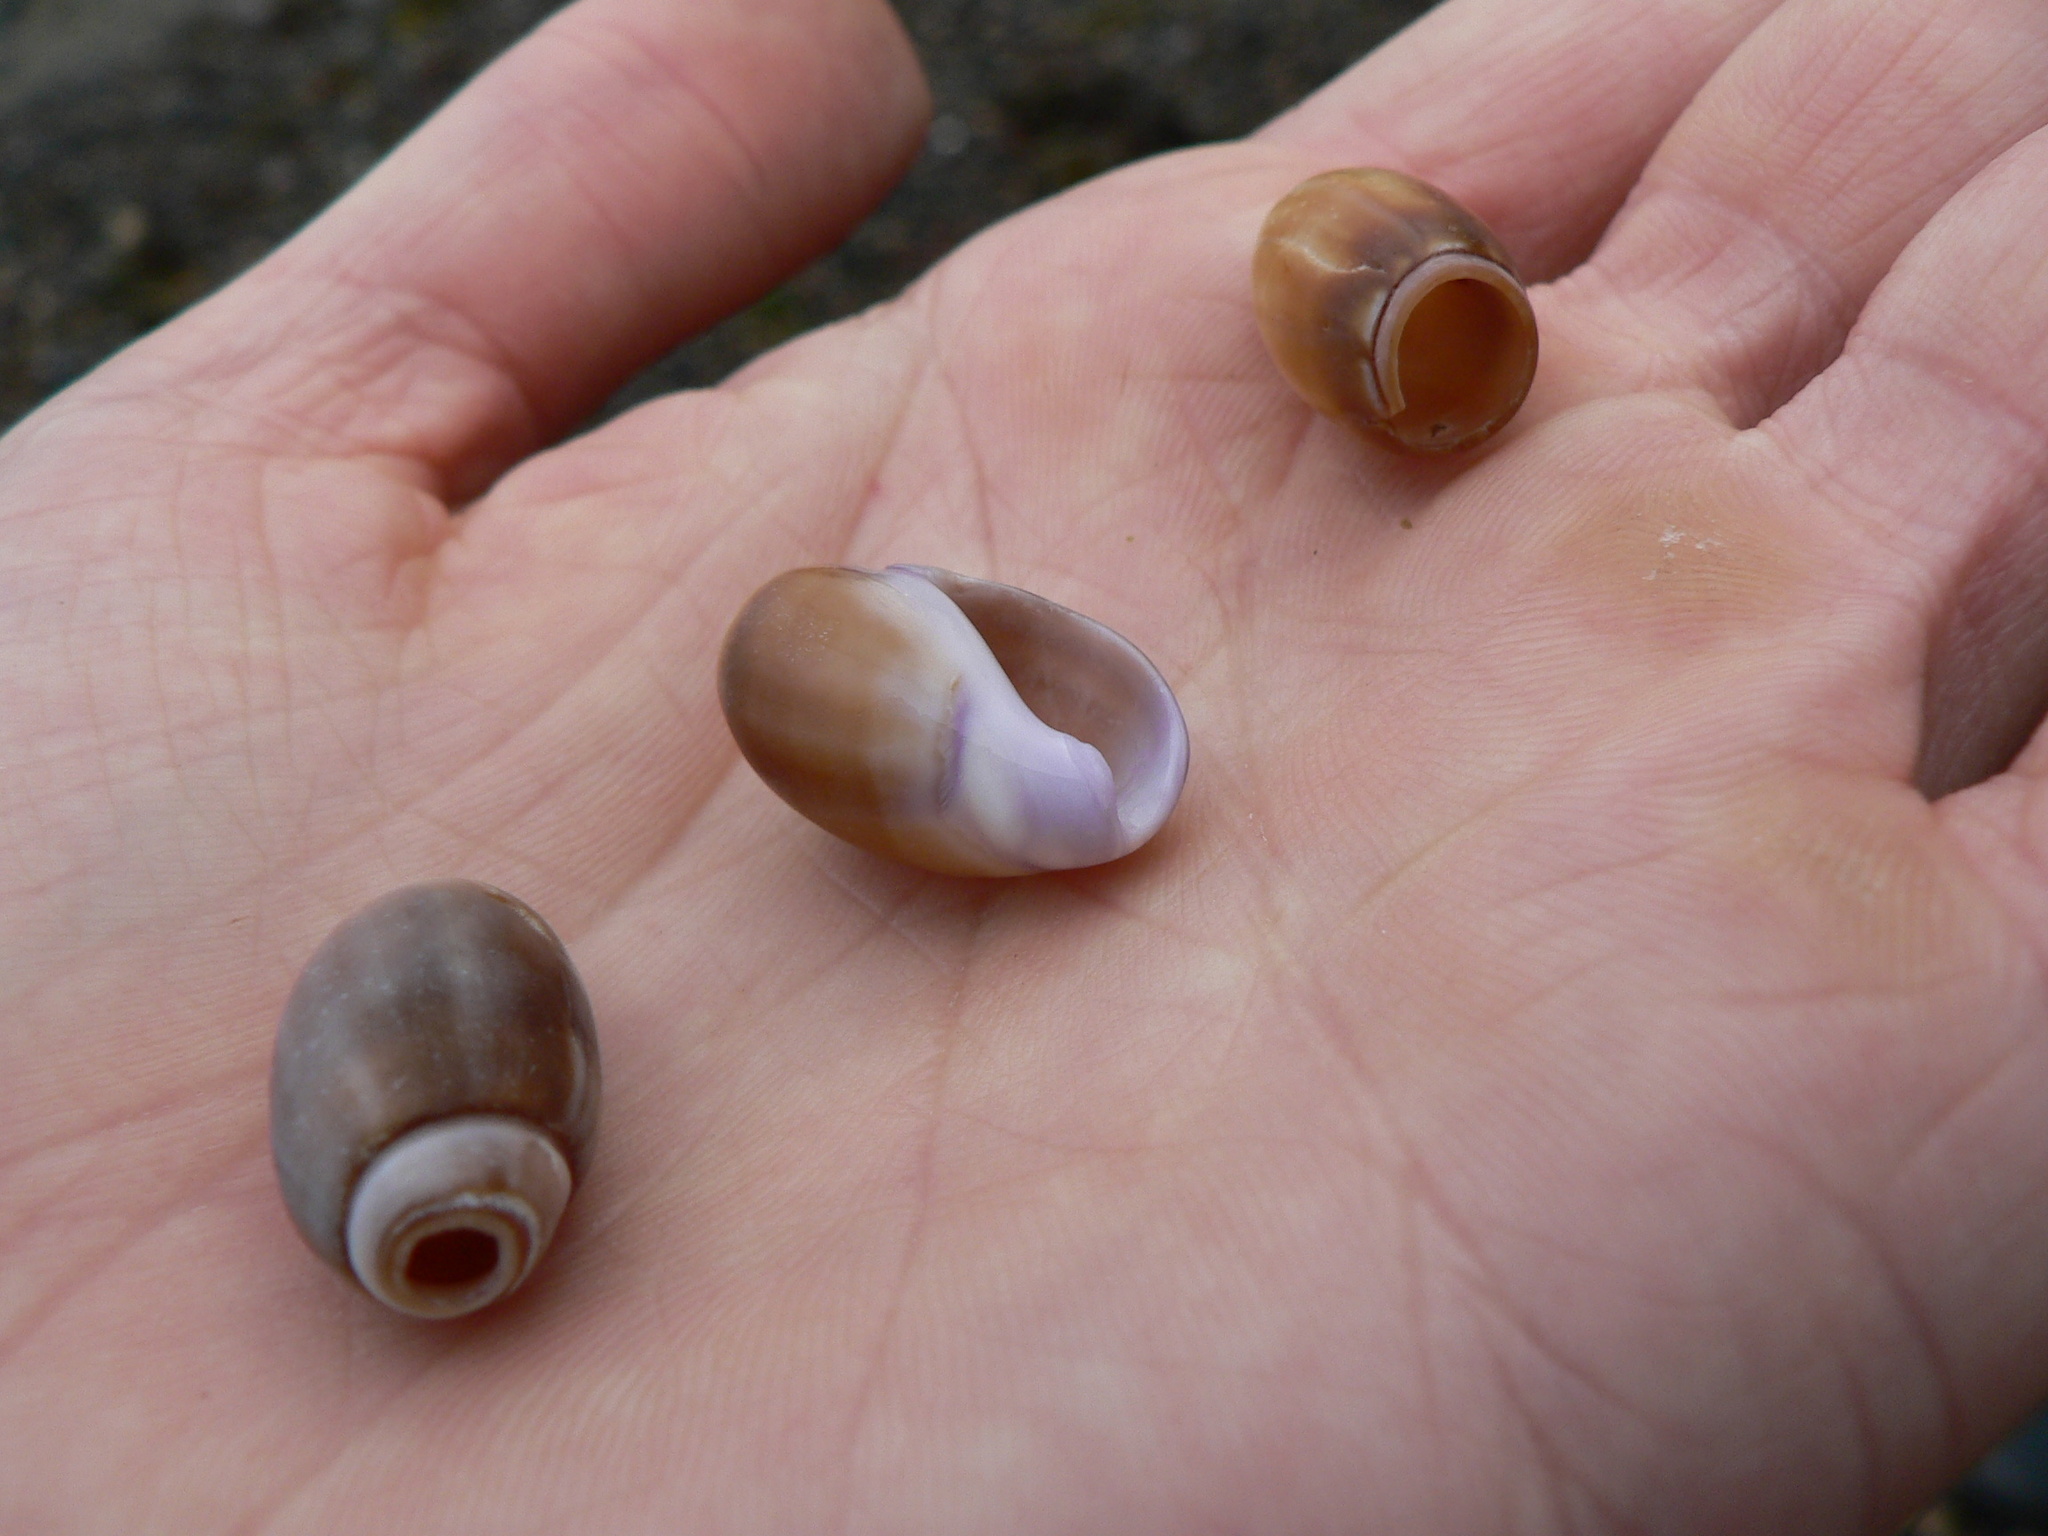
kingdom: Animalia
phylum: Mollusca
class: Gastropoda
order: Neogastropoda
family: Olividae
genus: Callianax
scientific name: Callianax biplicata
